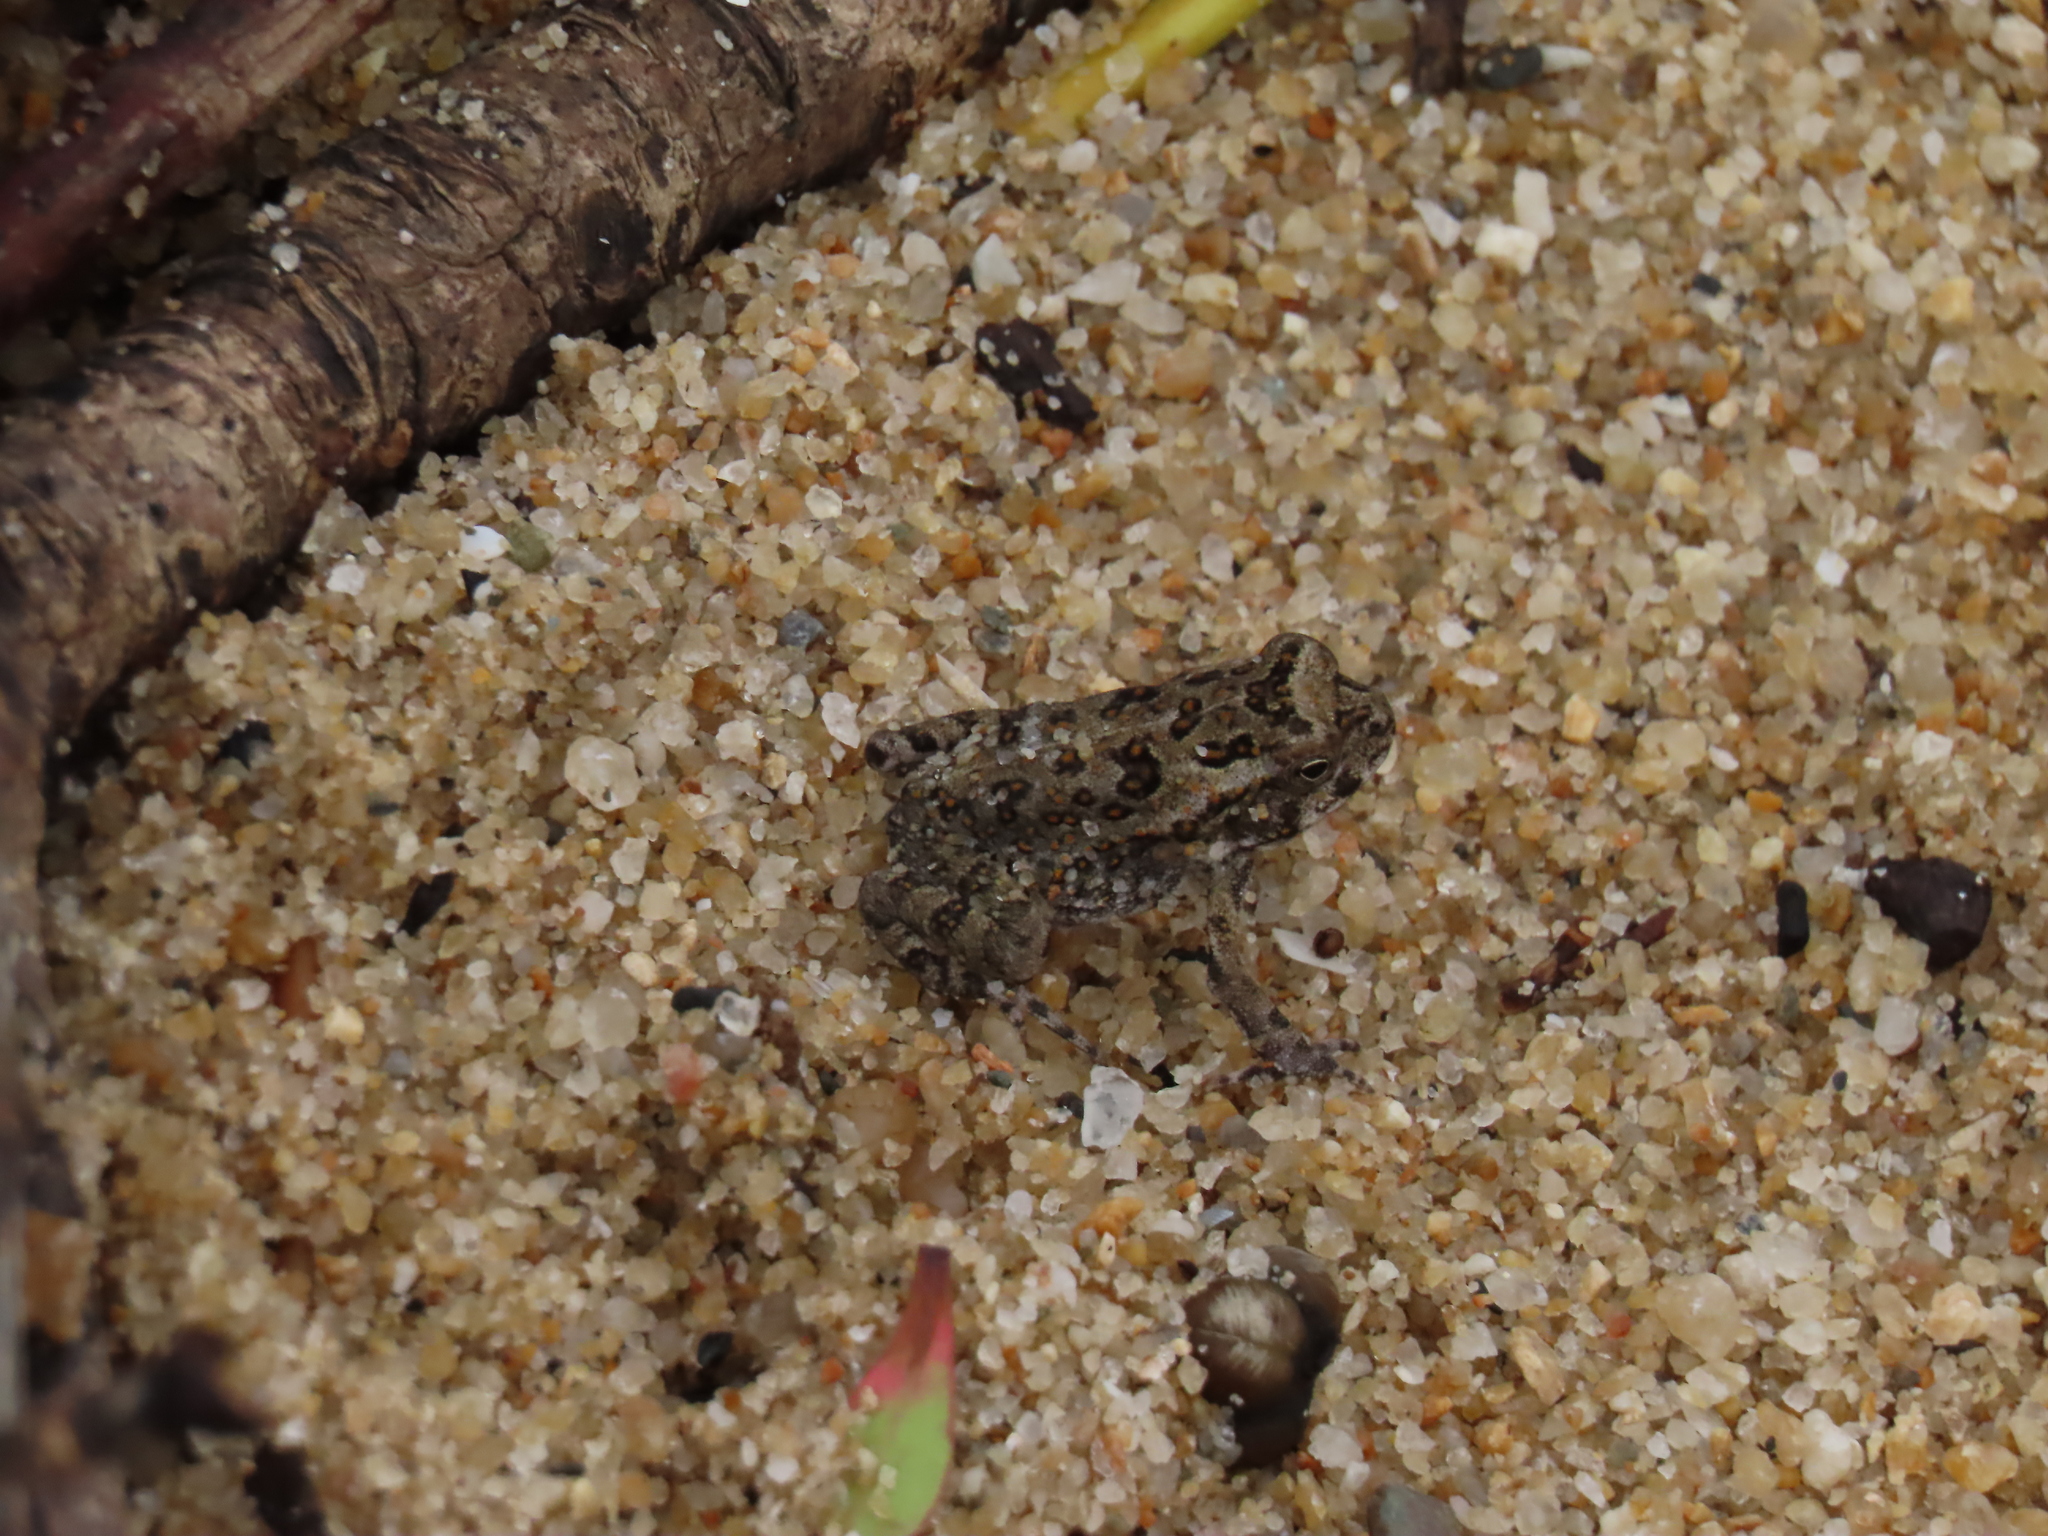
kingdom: Animalia
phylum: Chordata
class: Amphibia
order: Anura
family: Bufonidae
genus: Rhinella
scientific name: Rhinella marina
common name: Cane toad
